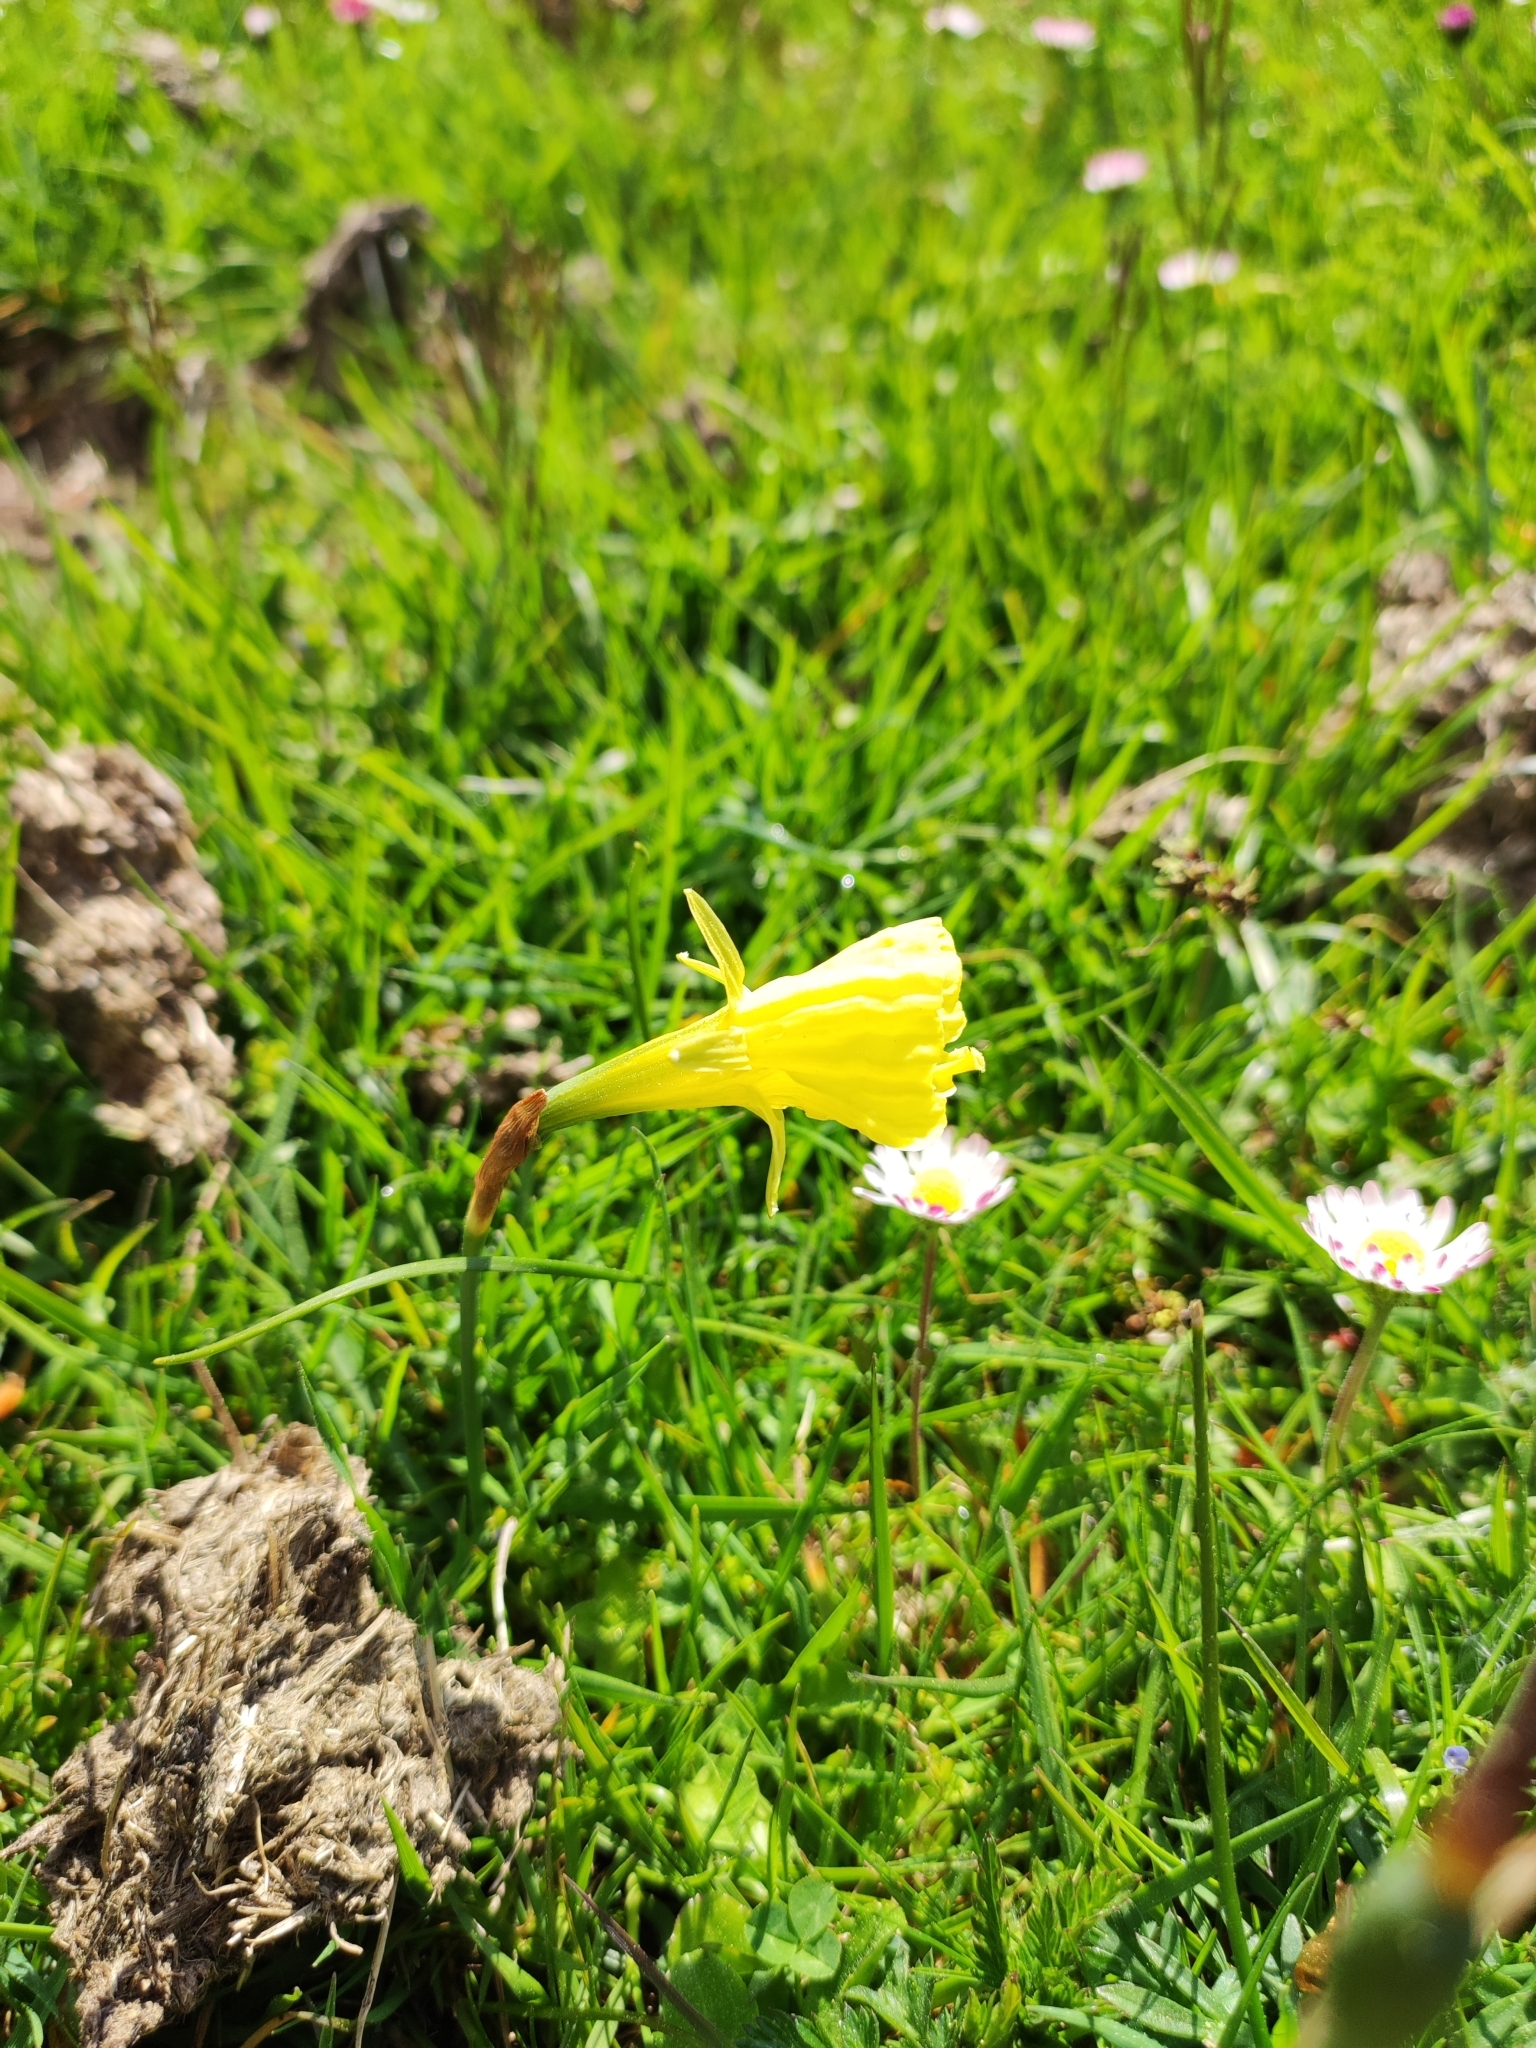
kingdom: Plantae
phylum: Tracheophyta
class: Liliopsida
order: Asparagales
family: Amaryllidaceae
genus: Narcissus
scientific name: Narcissus bulbocodium
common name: Hoop-petticoat daffodil
